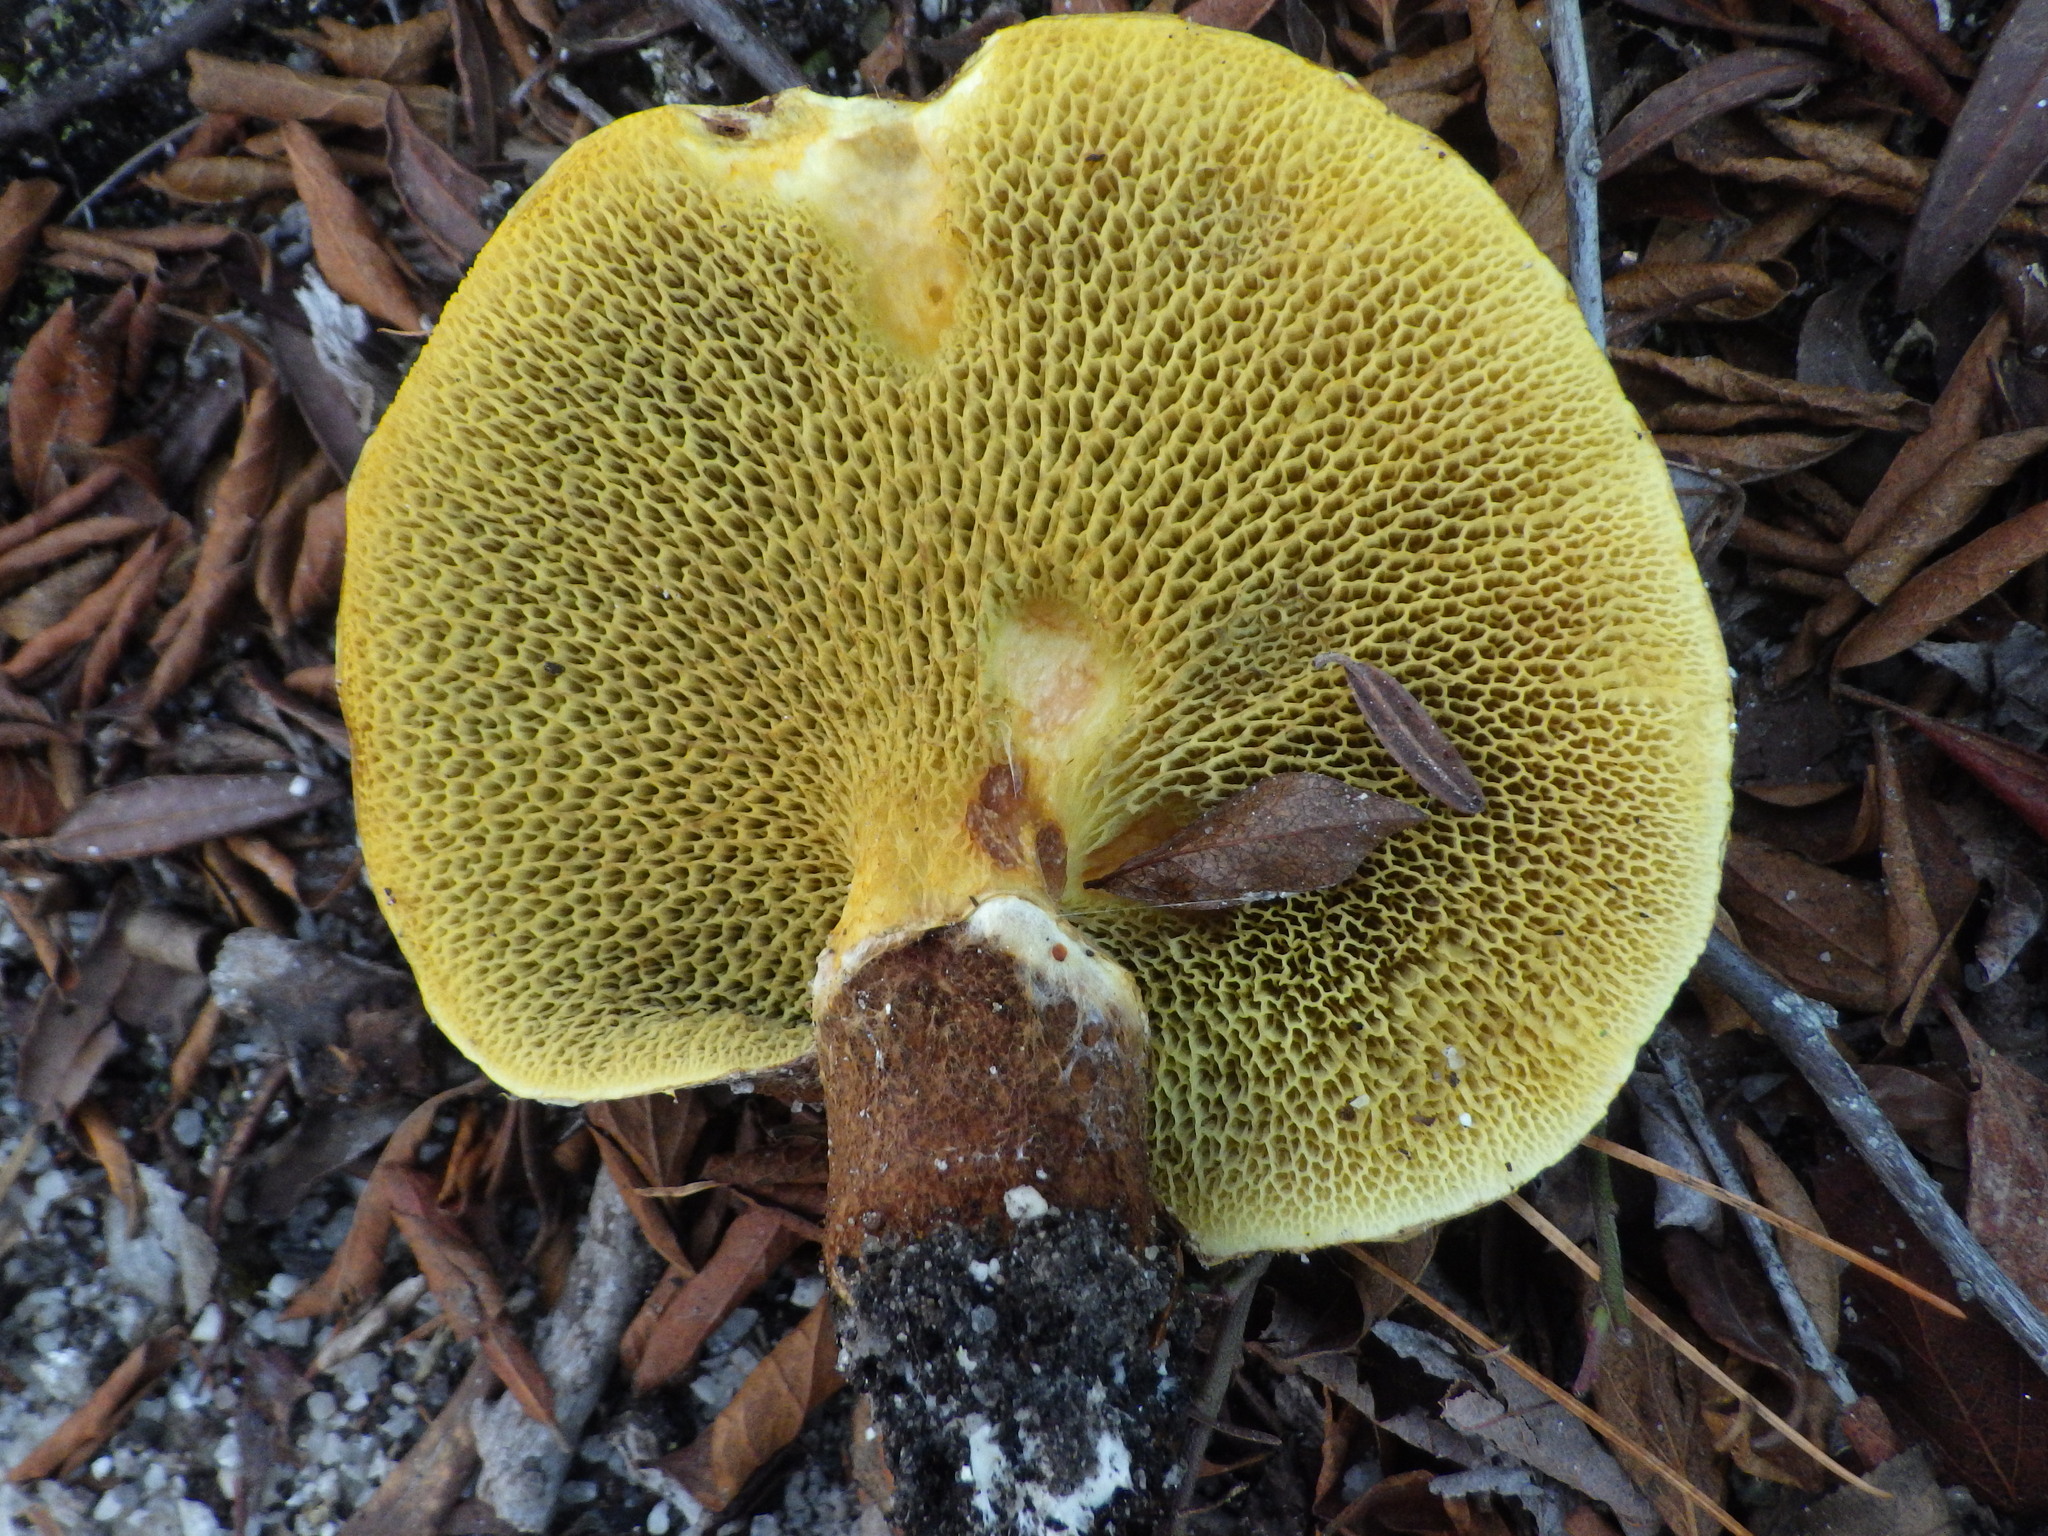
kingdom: Fungi
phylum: Basidiomycota
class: Agaricomycetes
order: Boletales
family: Suillaceae
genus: Boletinus
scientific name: Boletinus ampliporus
